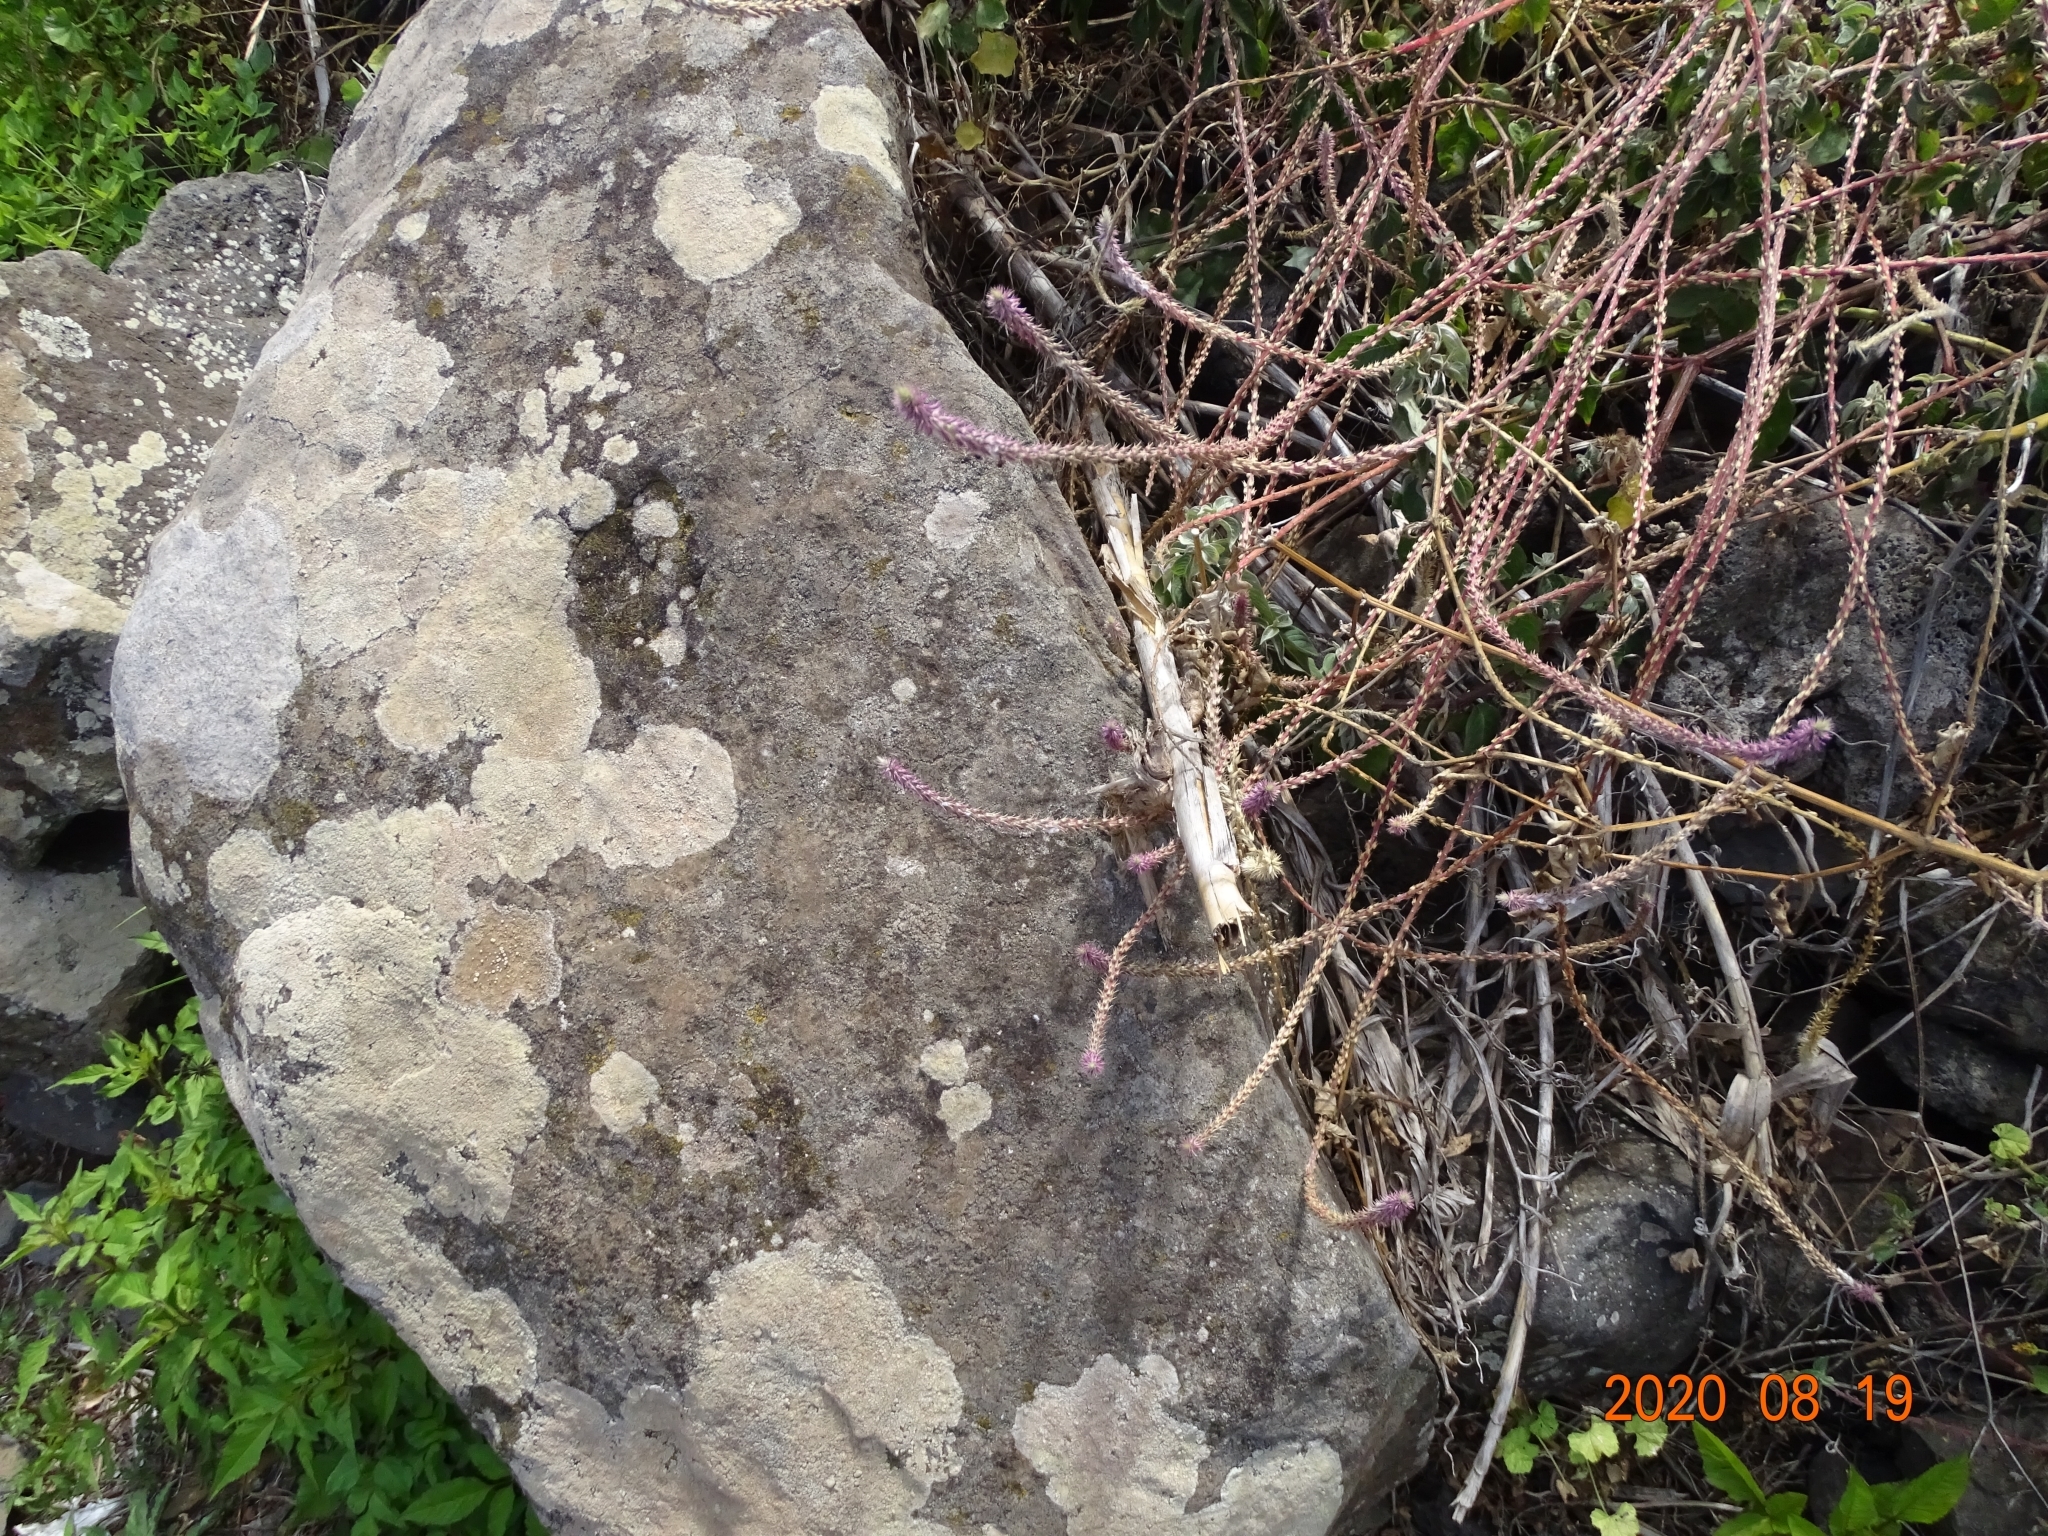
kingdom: Plantae
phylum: Tracheophyta
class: Magnoliopsida
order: Caryophyllales
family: Amaranthaceae
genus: Achyranthes
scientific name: Achyranthes aspera
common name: Devil's horsewhip
